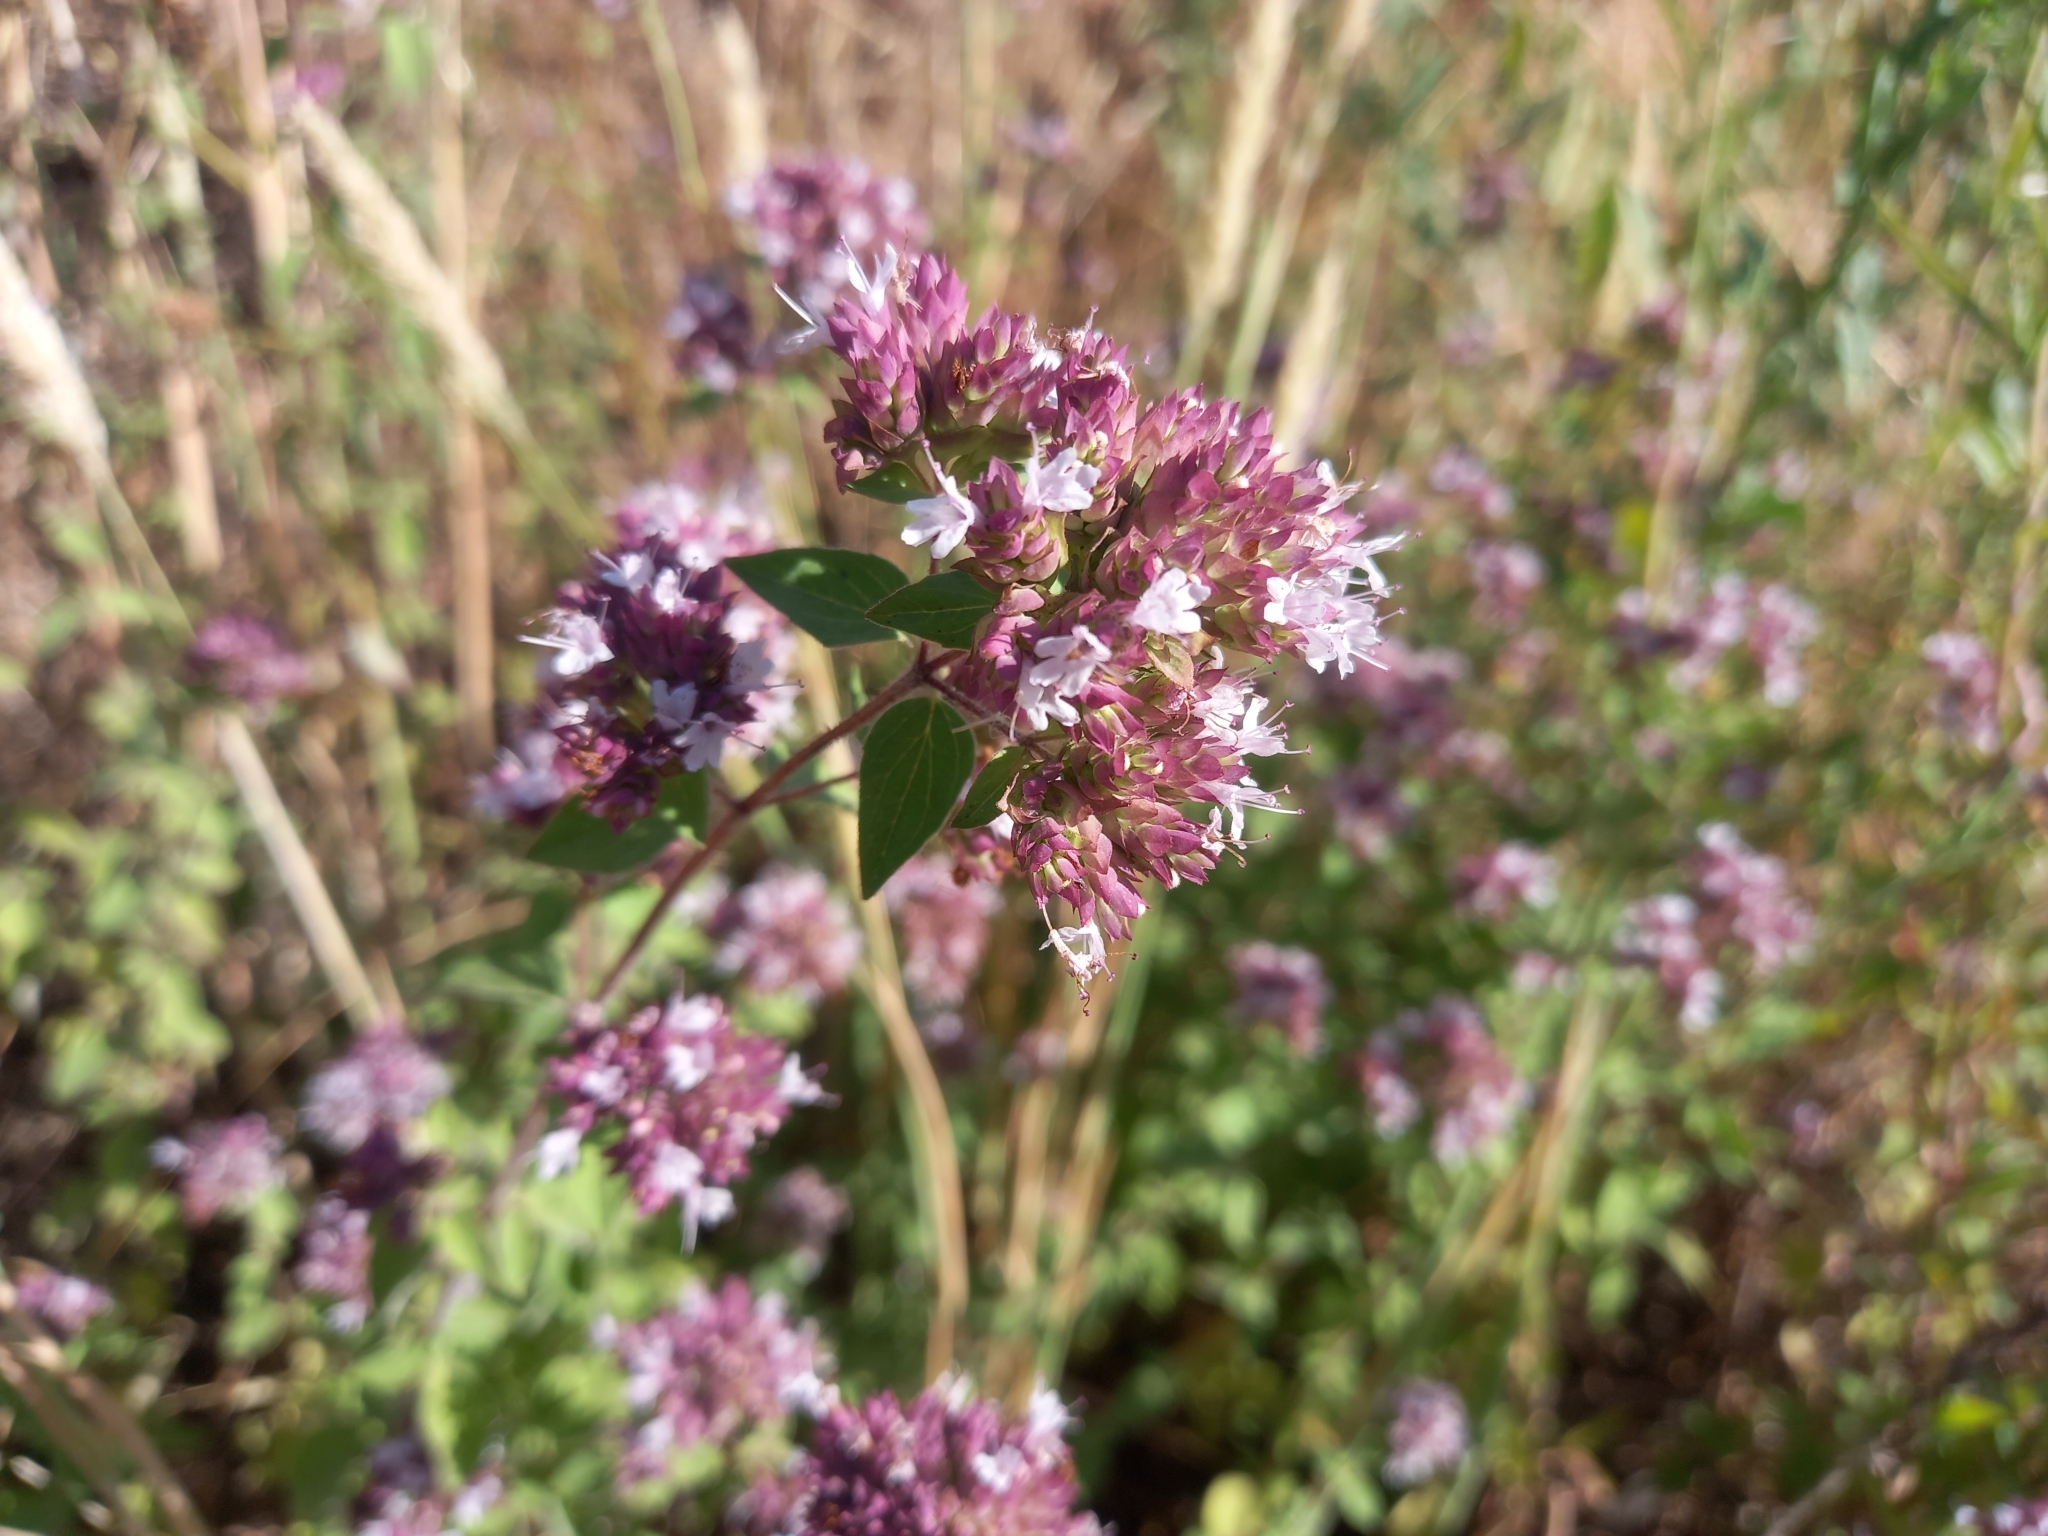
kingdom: Plantae
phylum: Tracheophyta
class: Magnoliopsida
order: Lamiales
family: Lamiaceae
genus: Origanum
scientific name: Origanum vulgare
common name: Wild marjoram
